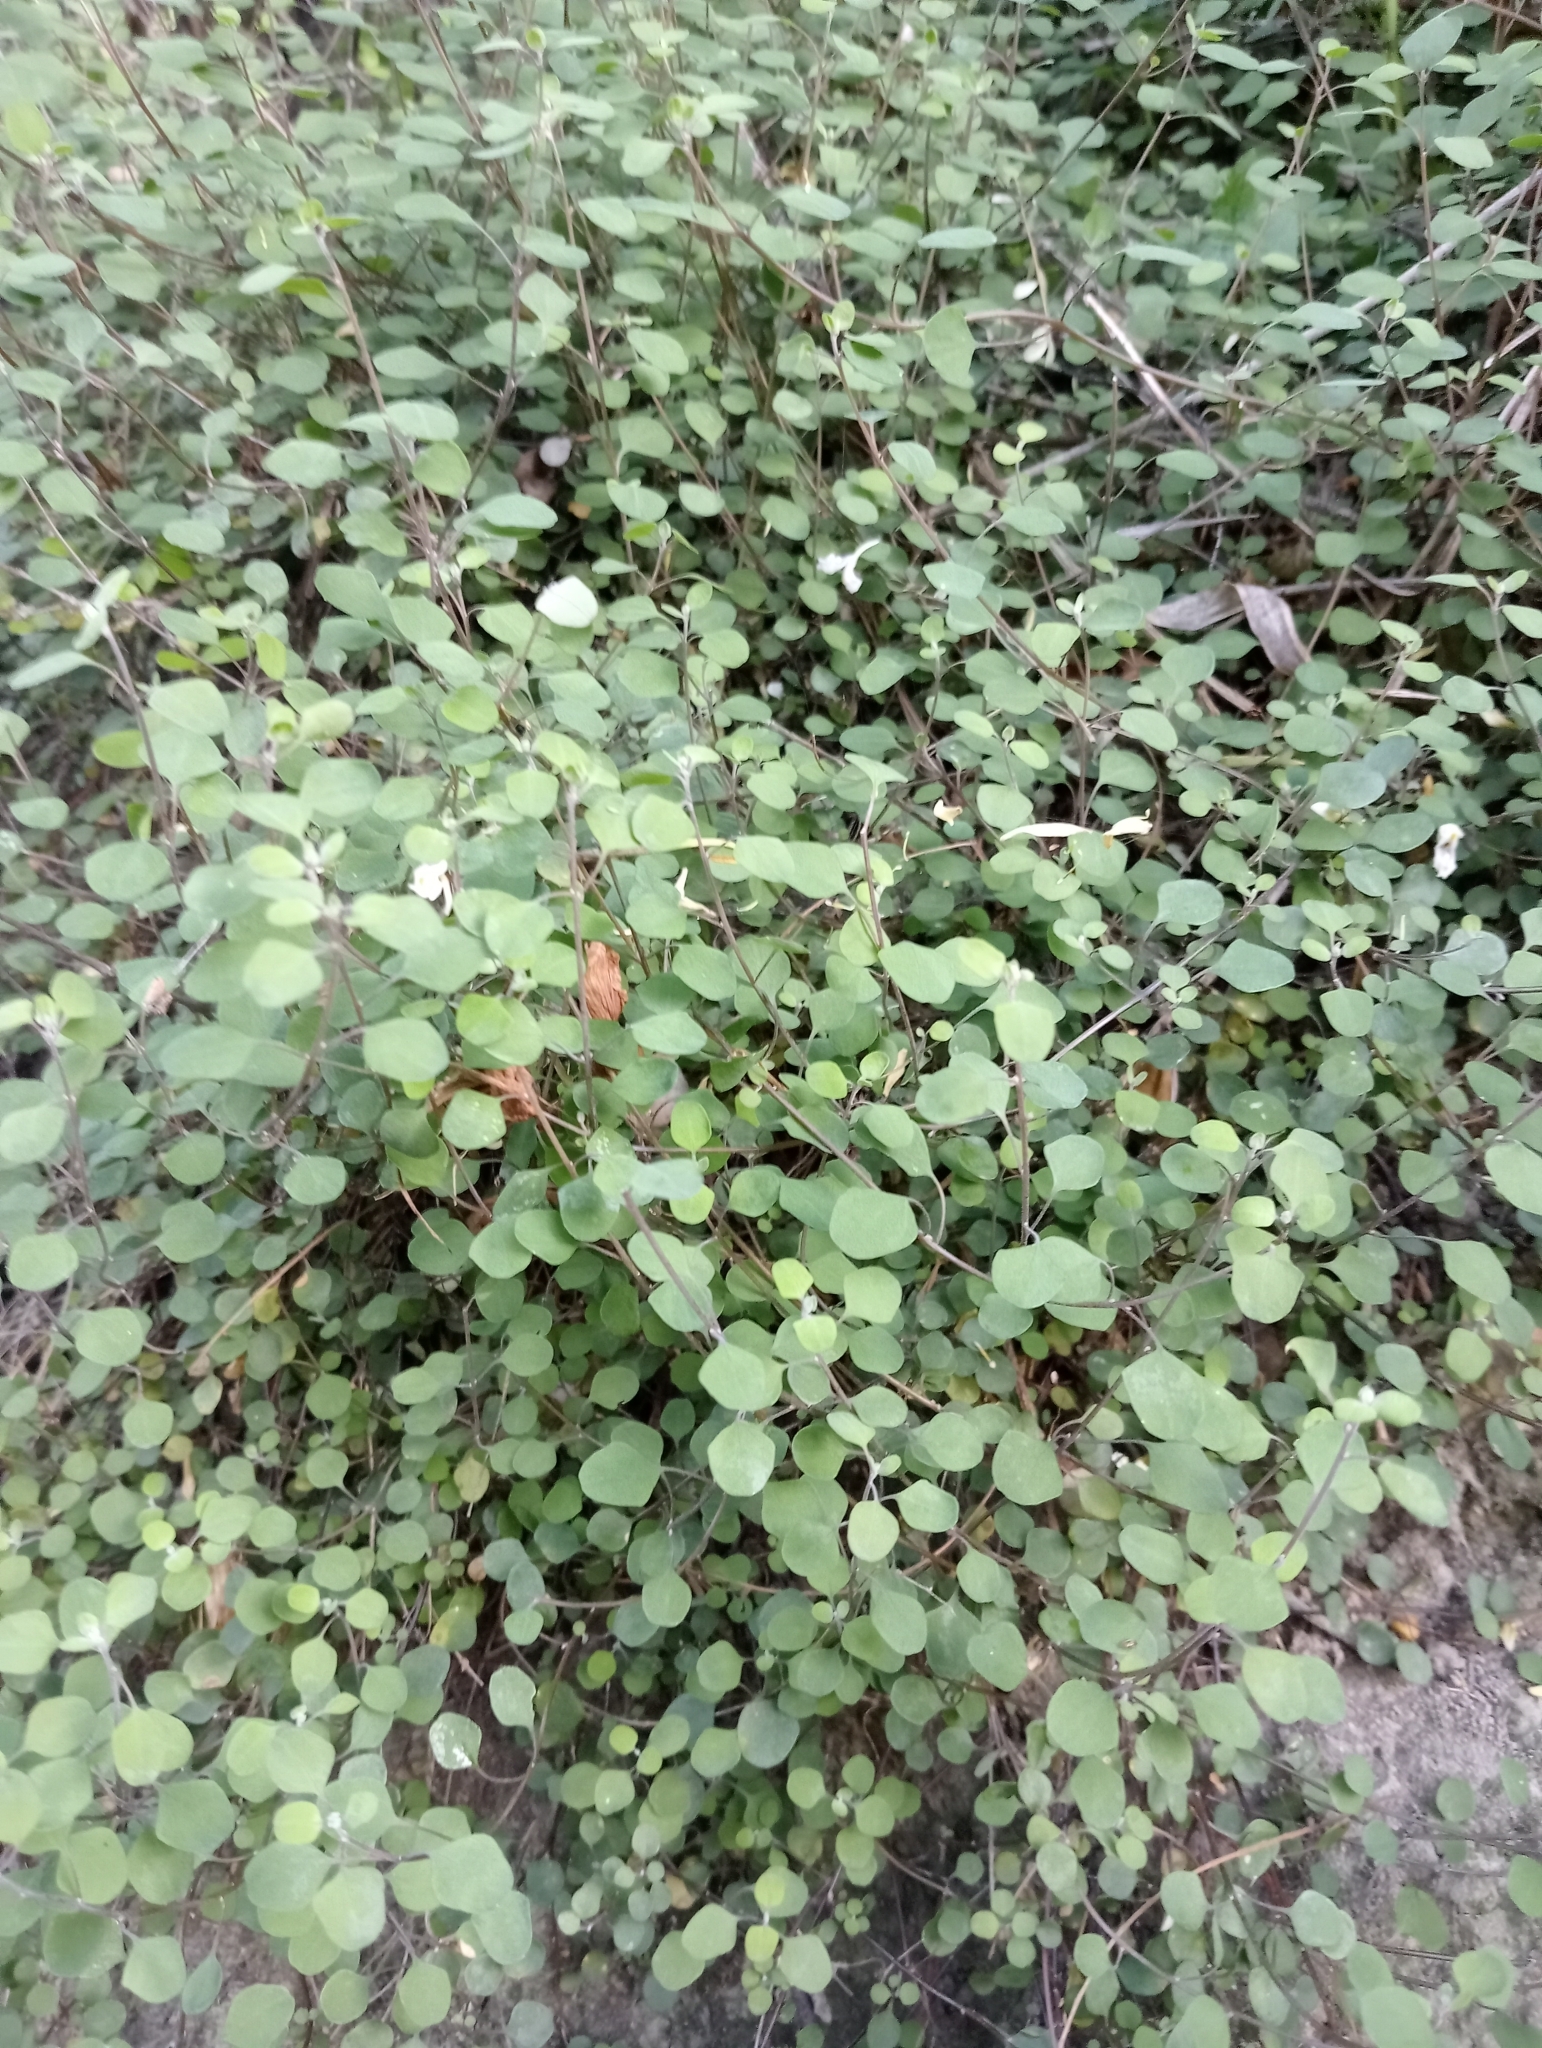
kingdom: Plantae
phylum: Tracheophyta
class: Magnoliopsida
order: Caryophyllales
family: Amaranthaceae
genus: Chenopodium
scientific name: Chenopodium allanii
